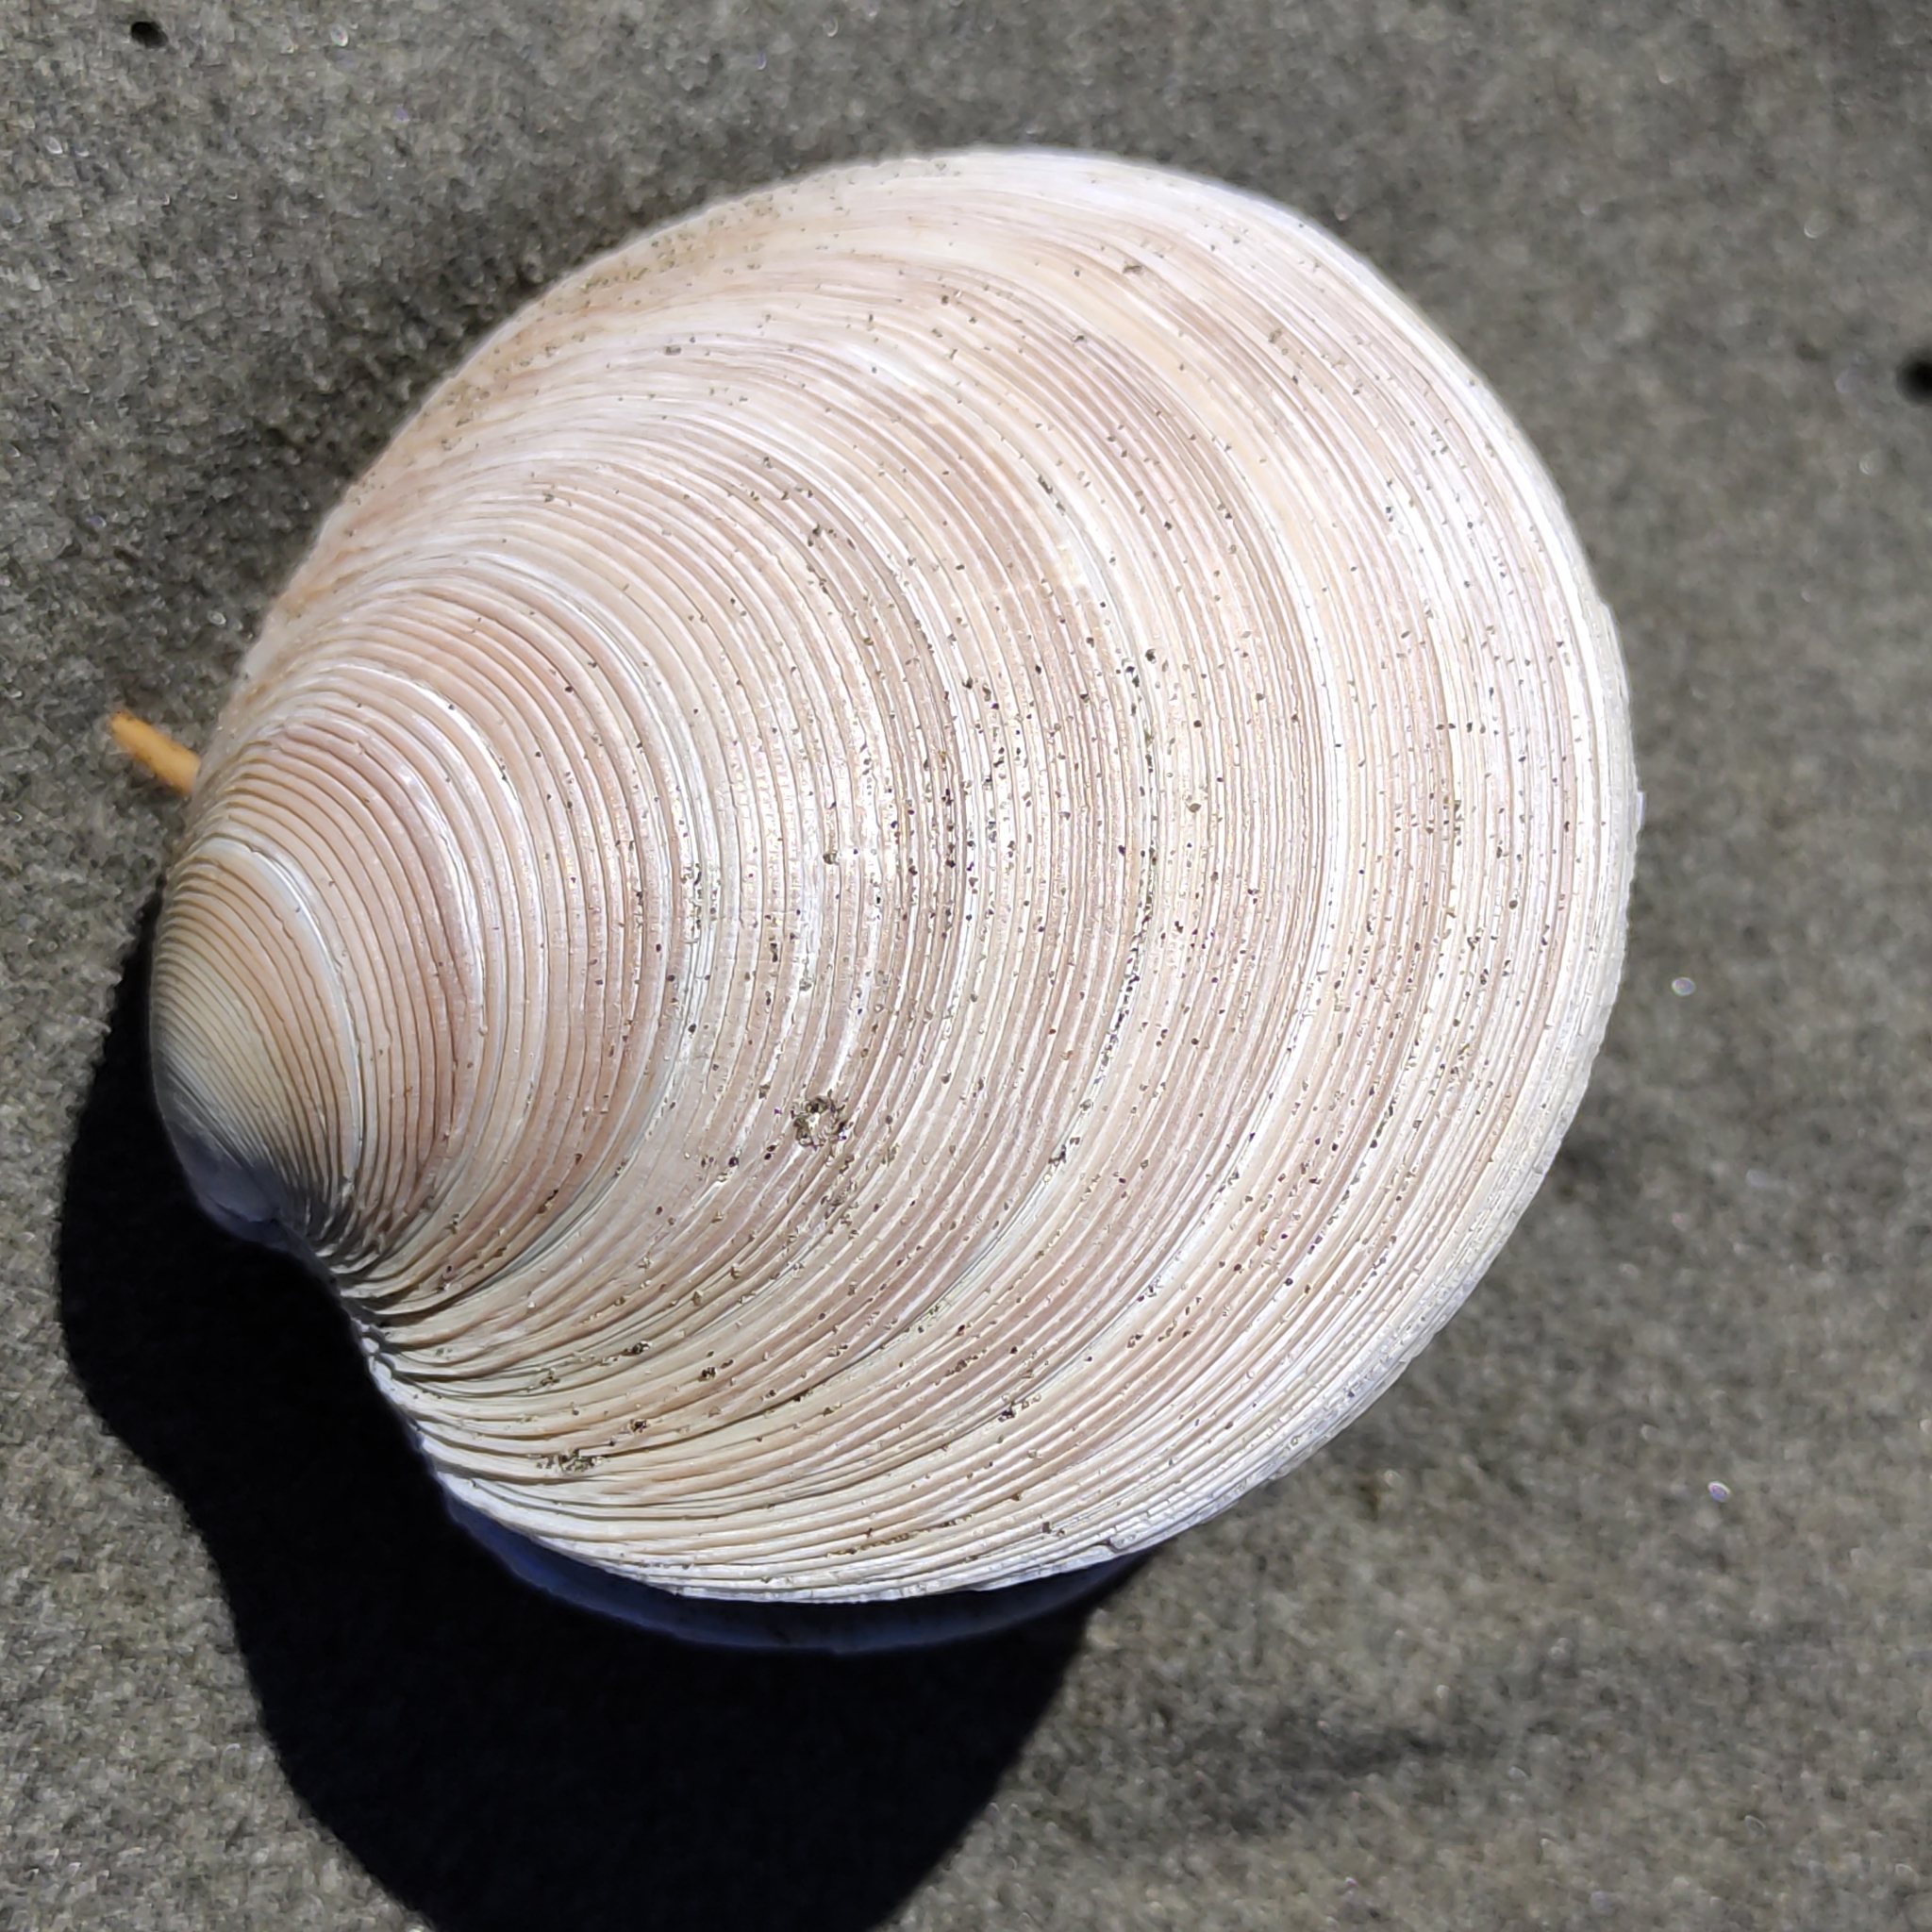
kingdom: Animalia
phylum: Mollusca
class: Bivalvia
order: Venerida
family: Veneridae
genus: Dosinia
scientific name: Dosinia anus
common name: Old-woman dosinia
